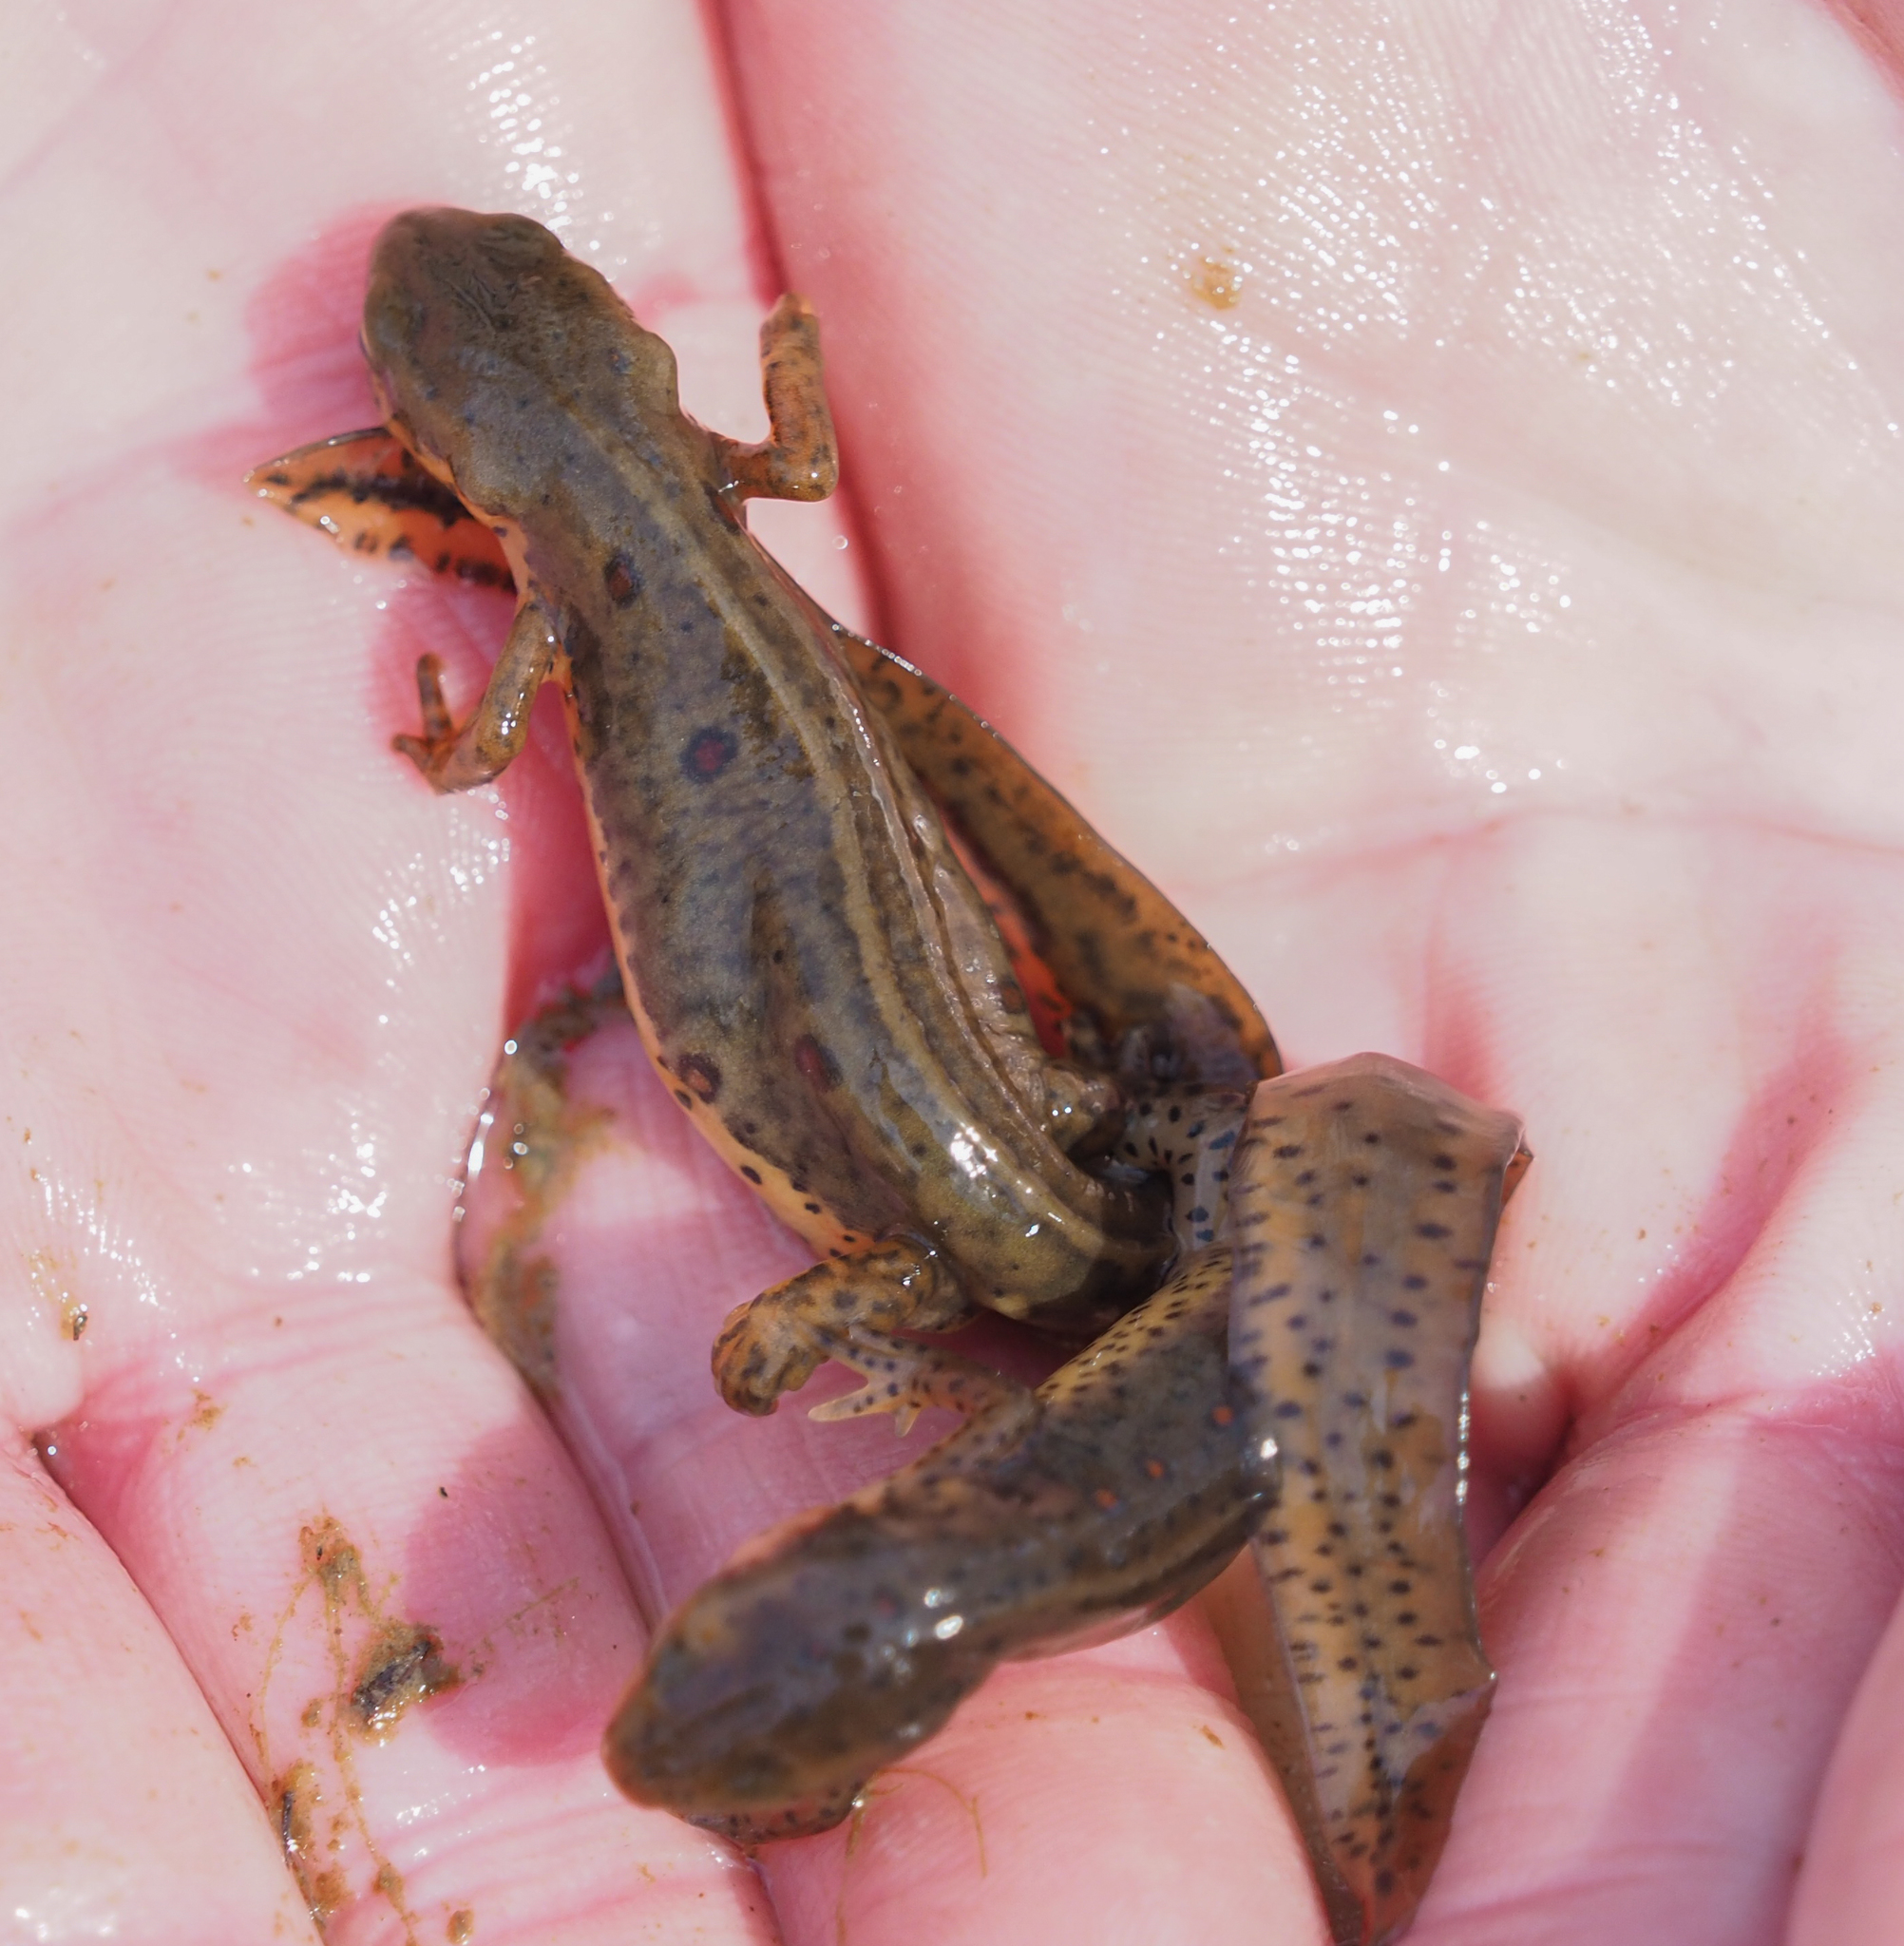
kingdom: Animalia
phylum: Chordata
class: Amphibia
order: Caudata
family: Salamandridae
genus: Notophthalmus
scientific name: Notophthalmus viridescens
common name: Eastern newt
